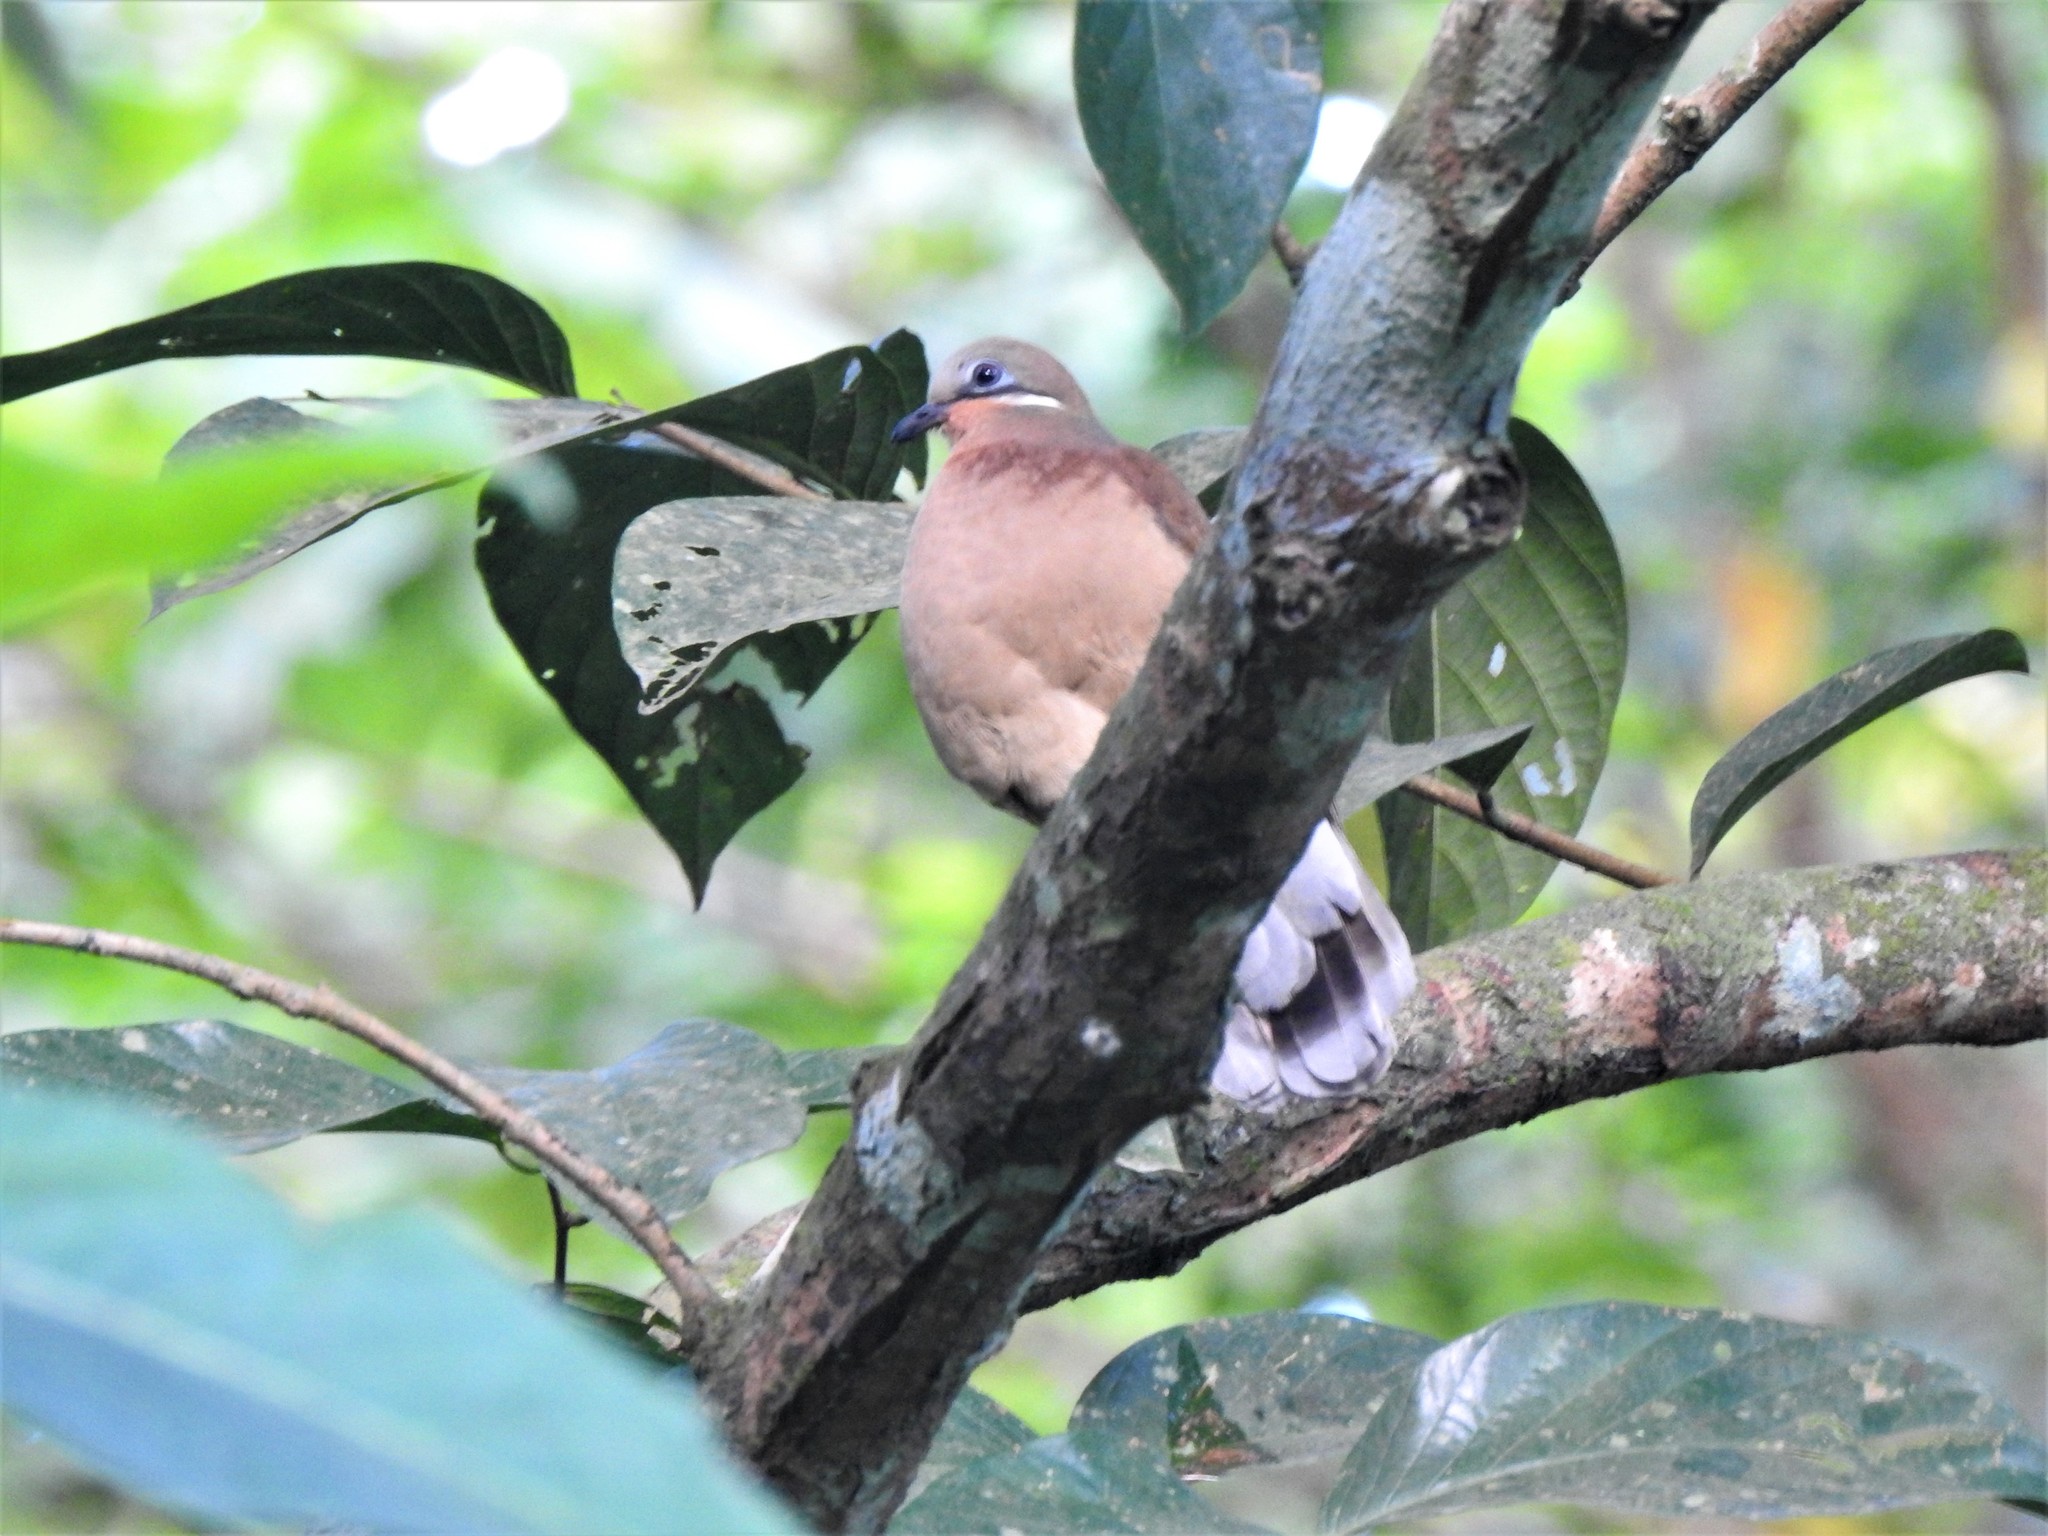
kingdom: Animalia
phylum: Chordata
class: Aves
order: Columbiformes
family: Columbidae
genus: Phapitreron
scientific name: Phapitreron leucotis
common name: White-eared brown dove
